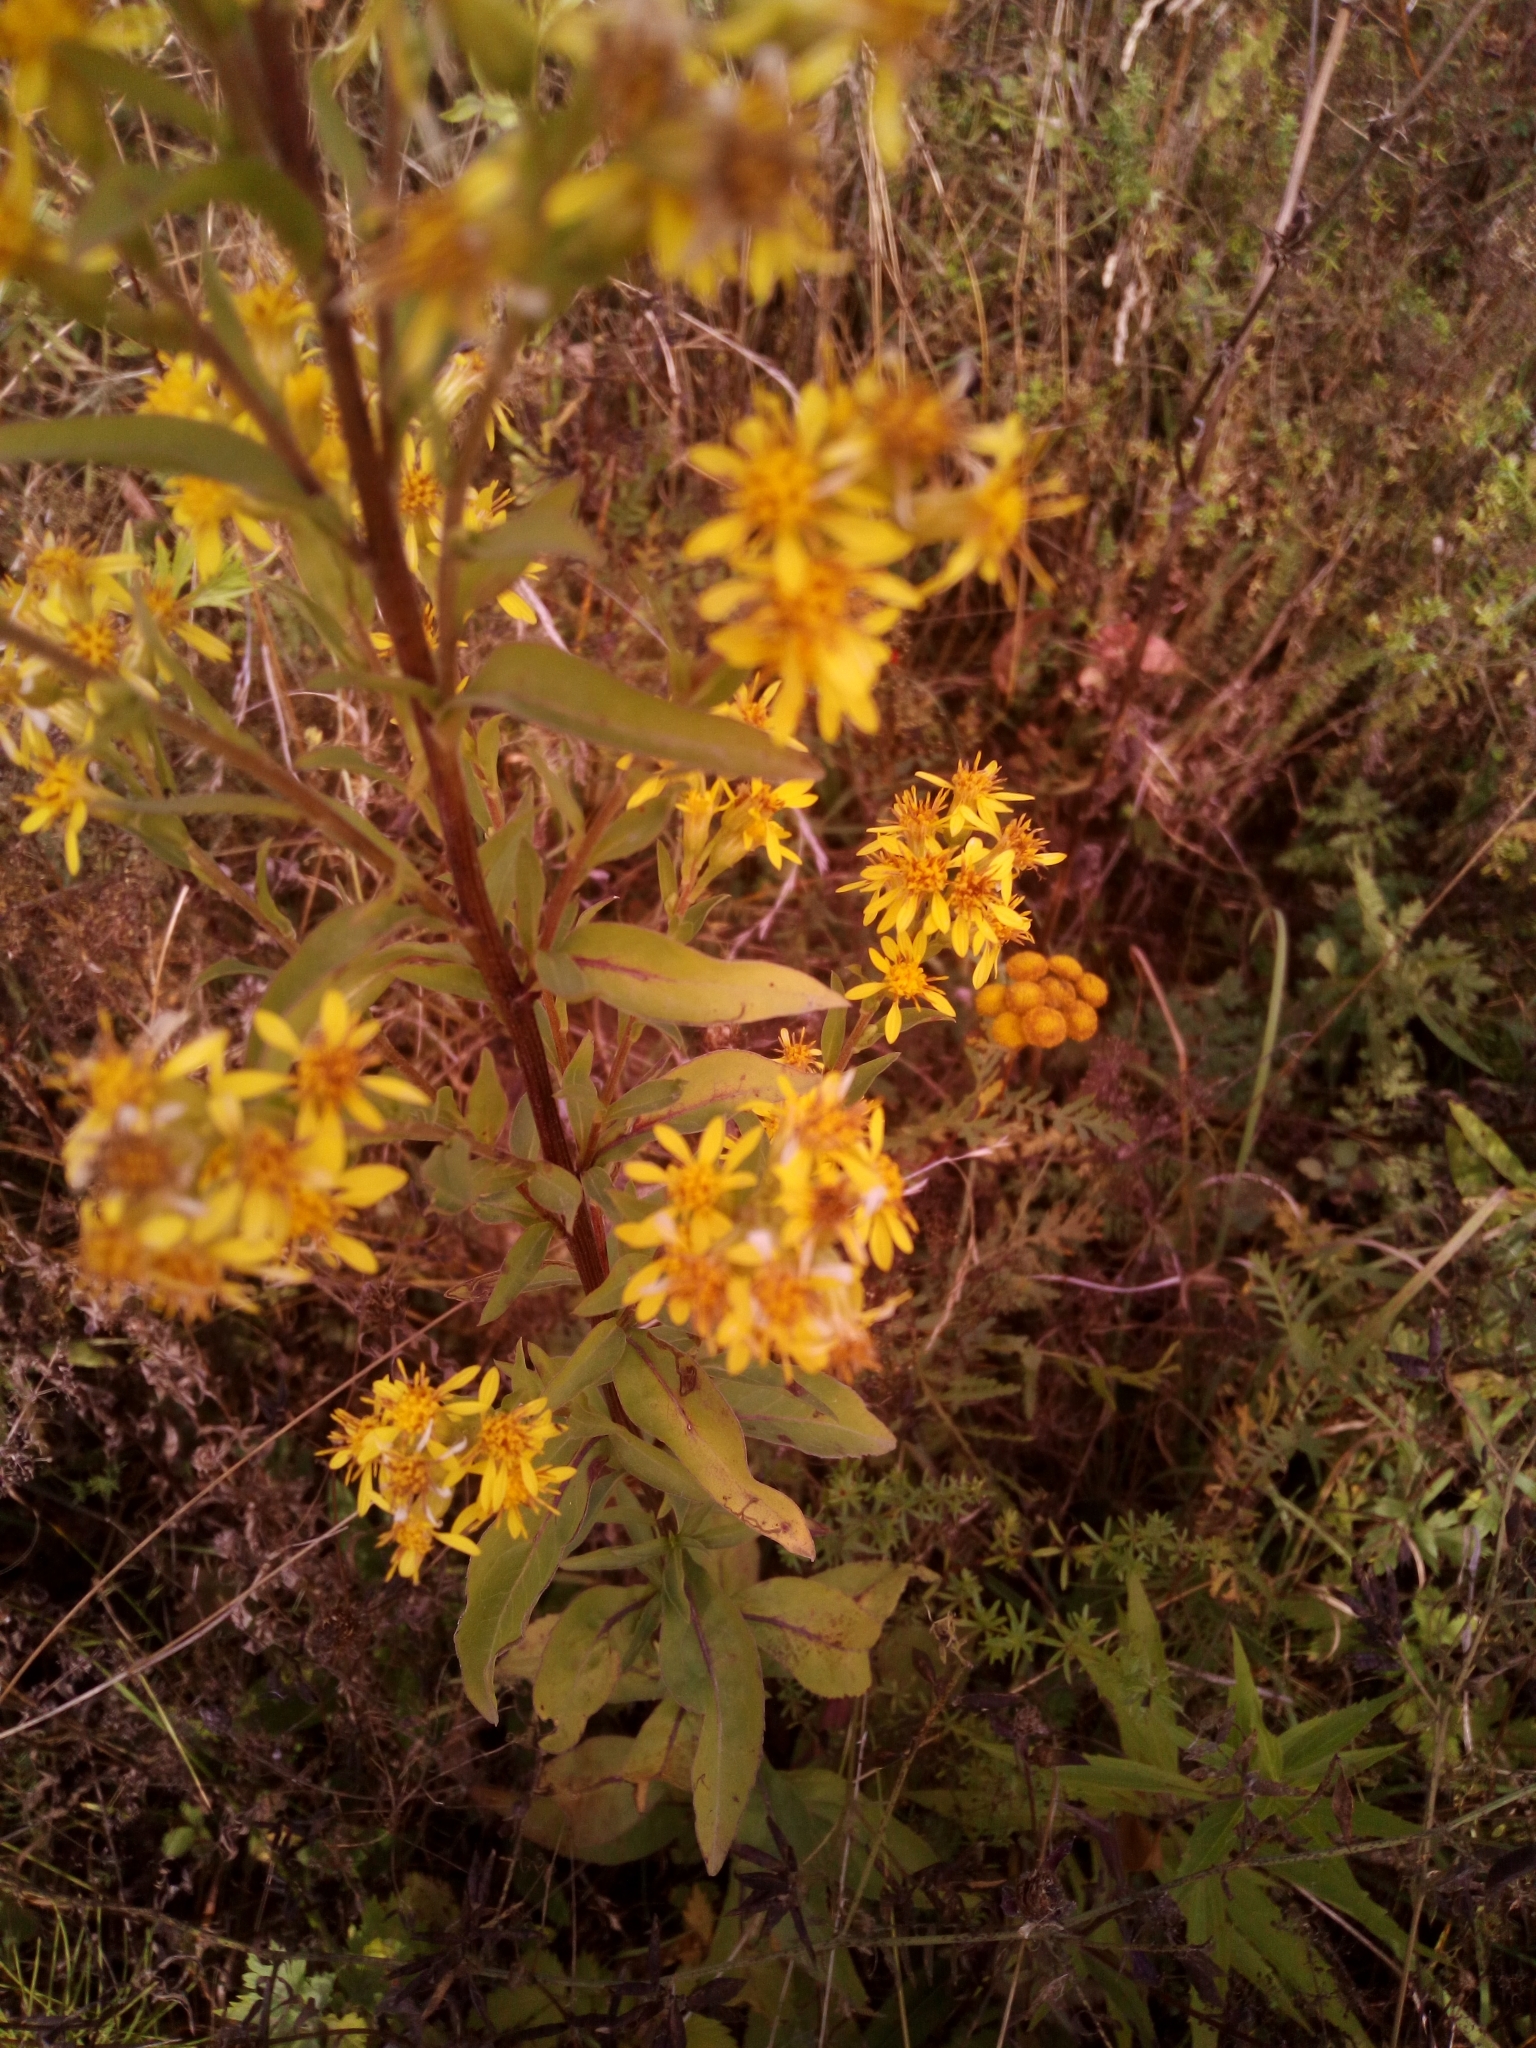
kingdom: Plantae
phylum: Tracheophyta
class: Magnoliopsida
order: Asterales
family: Asteraceae
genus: Solidago
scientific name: Solidago virgaurea
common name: Goldenrod
